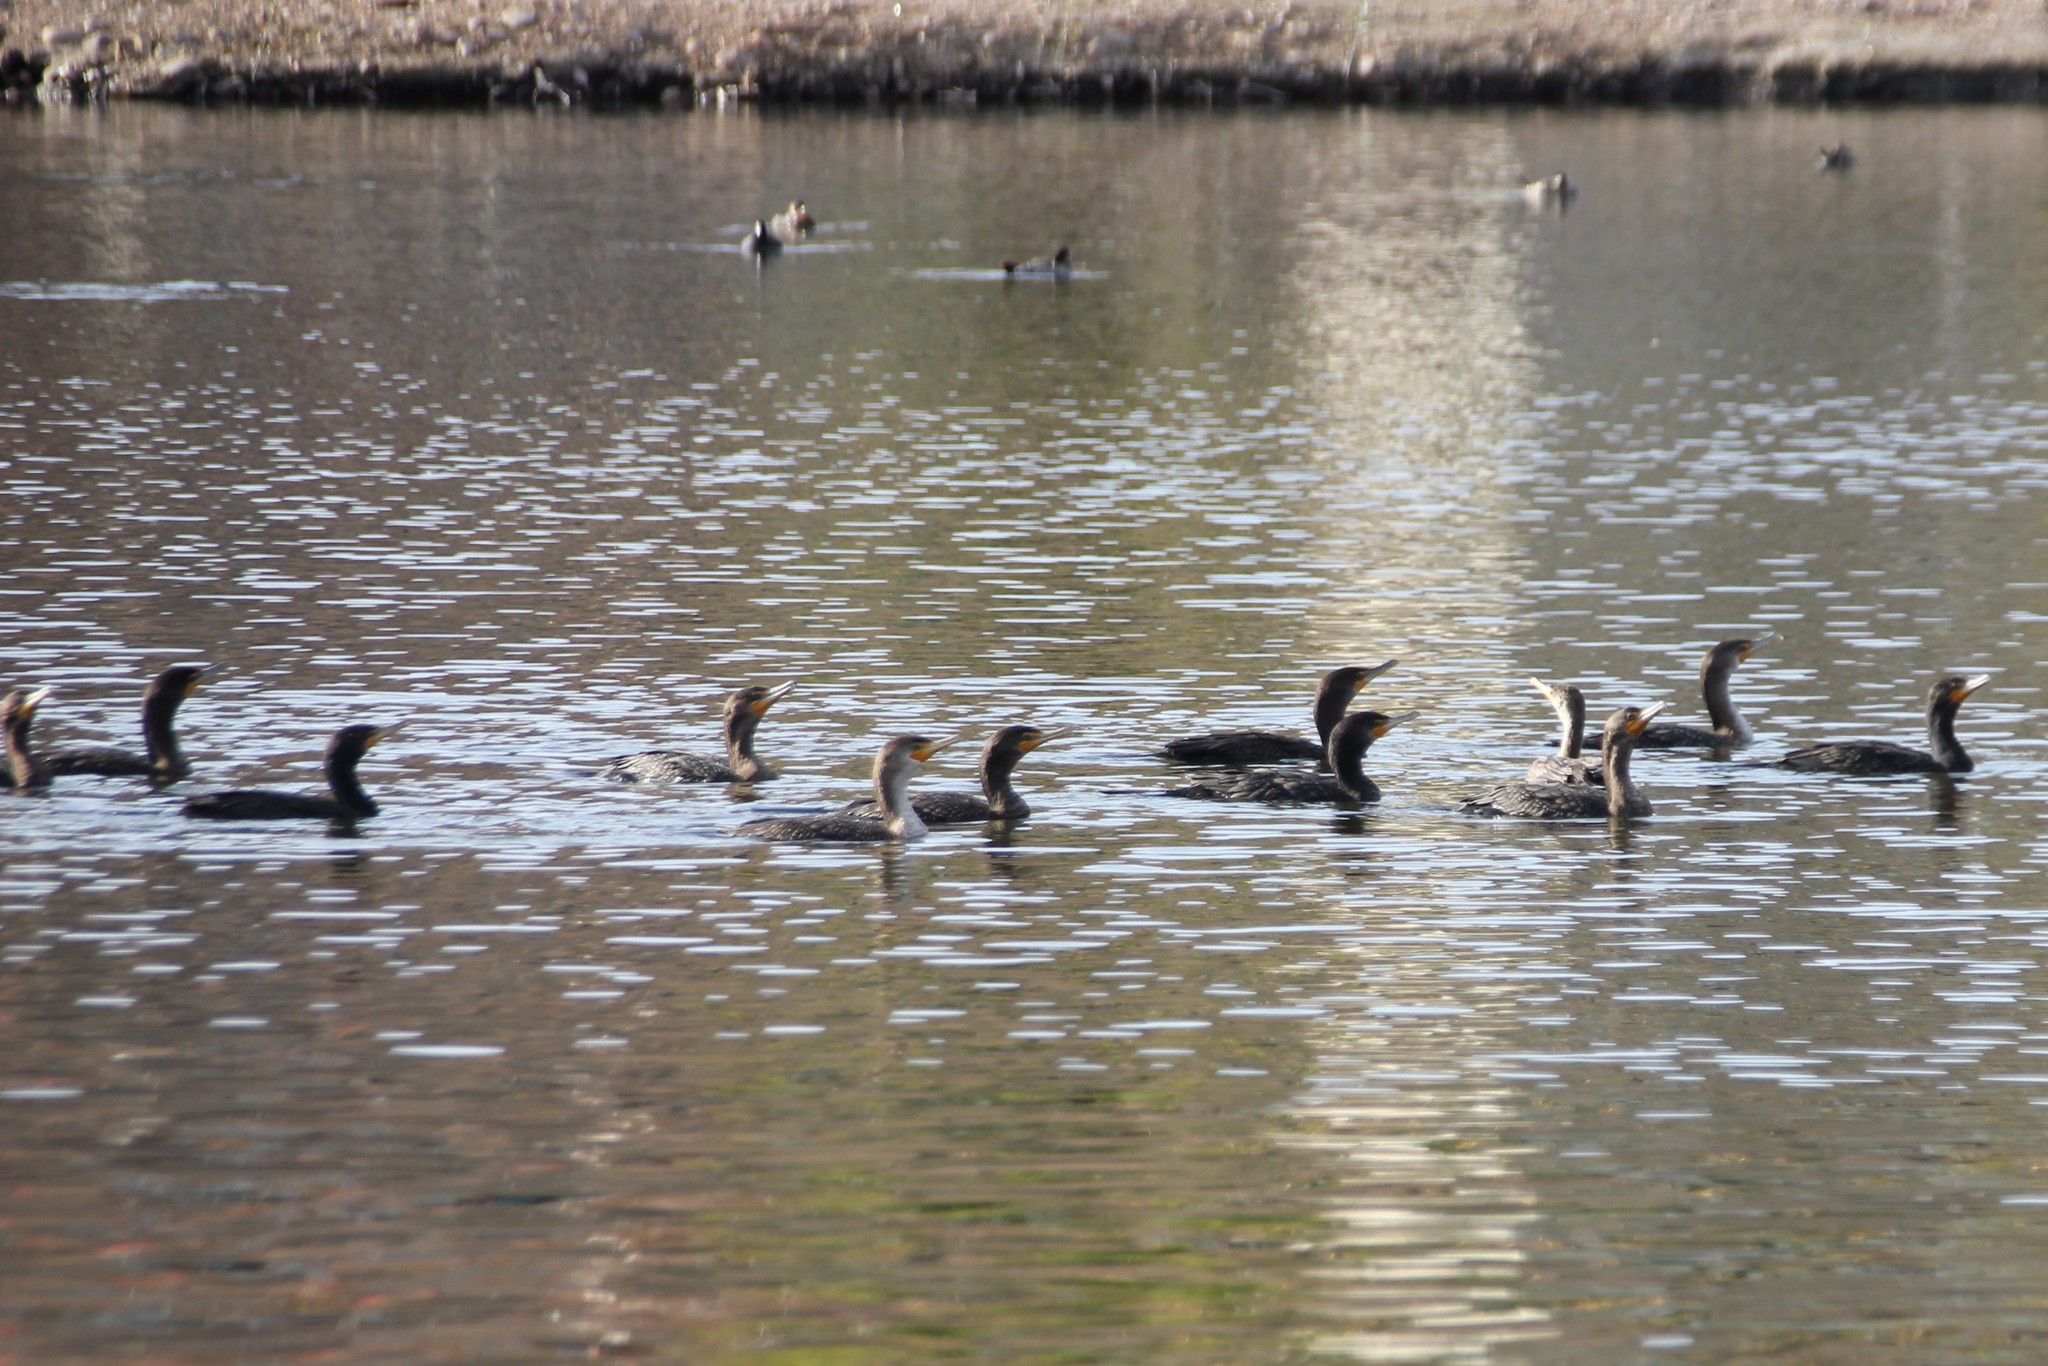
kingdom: Animalia
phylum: Chordata
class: Aves
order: Suliformes
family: Phalacrocoracidae
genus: Phalacrocorax
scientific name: Phalacrocorax auritus
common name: Double-crested cormorant
